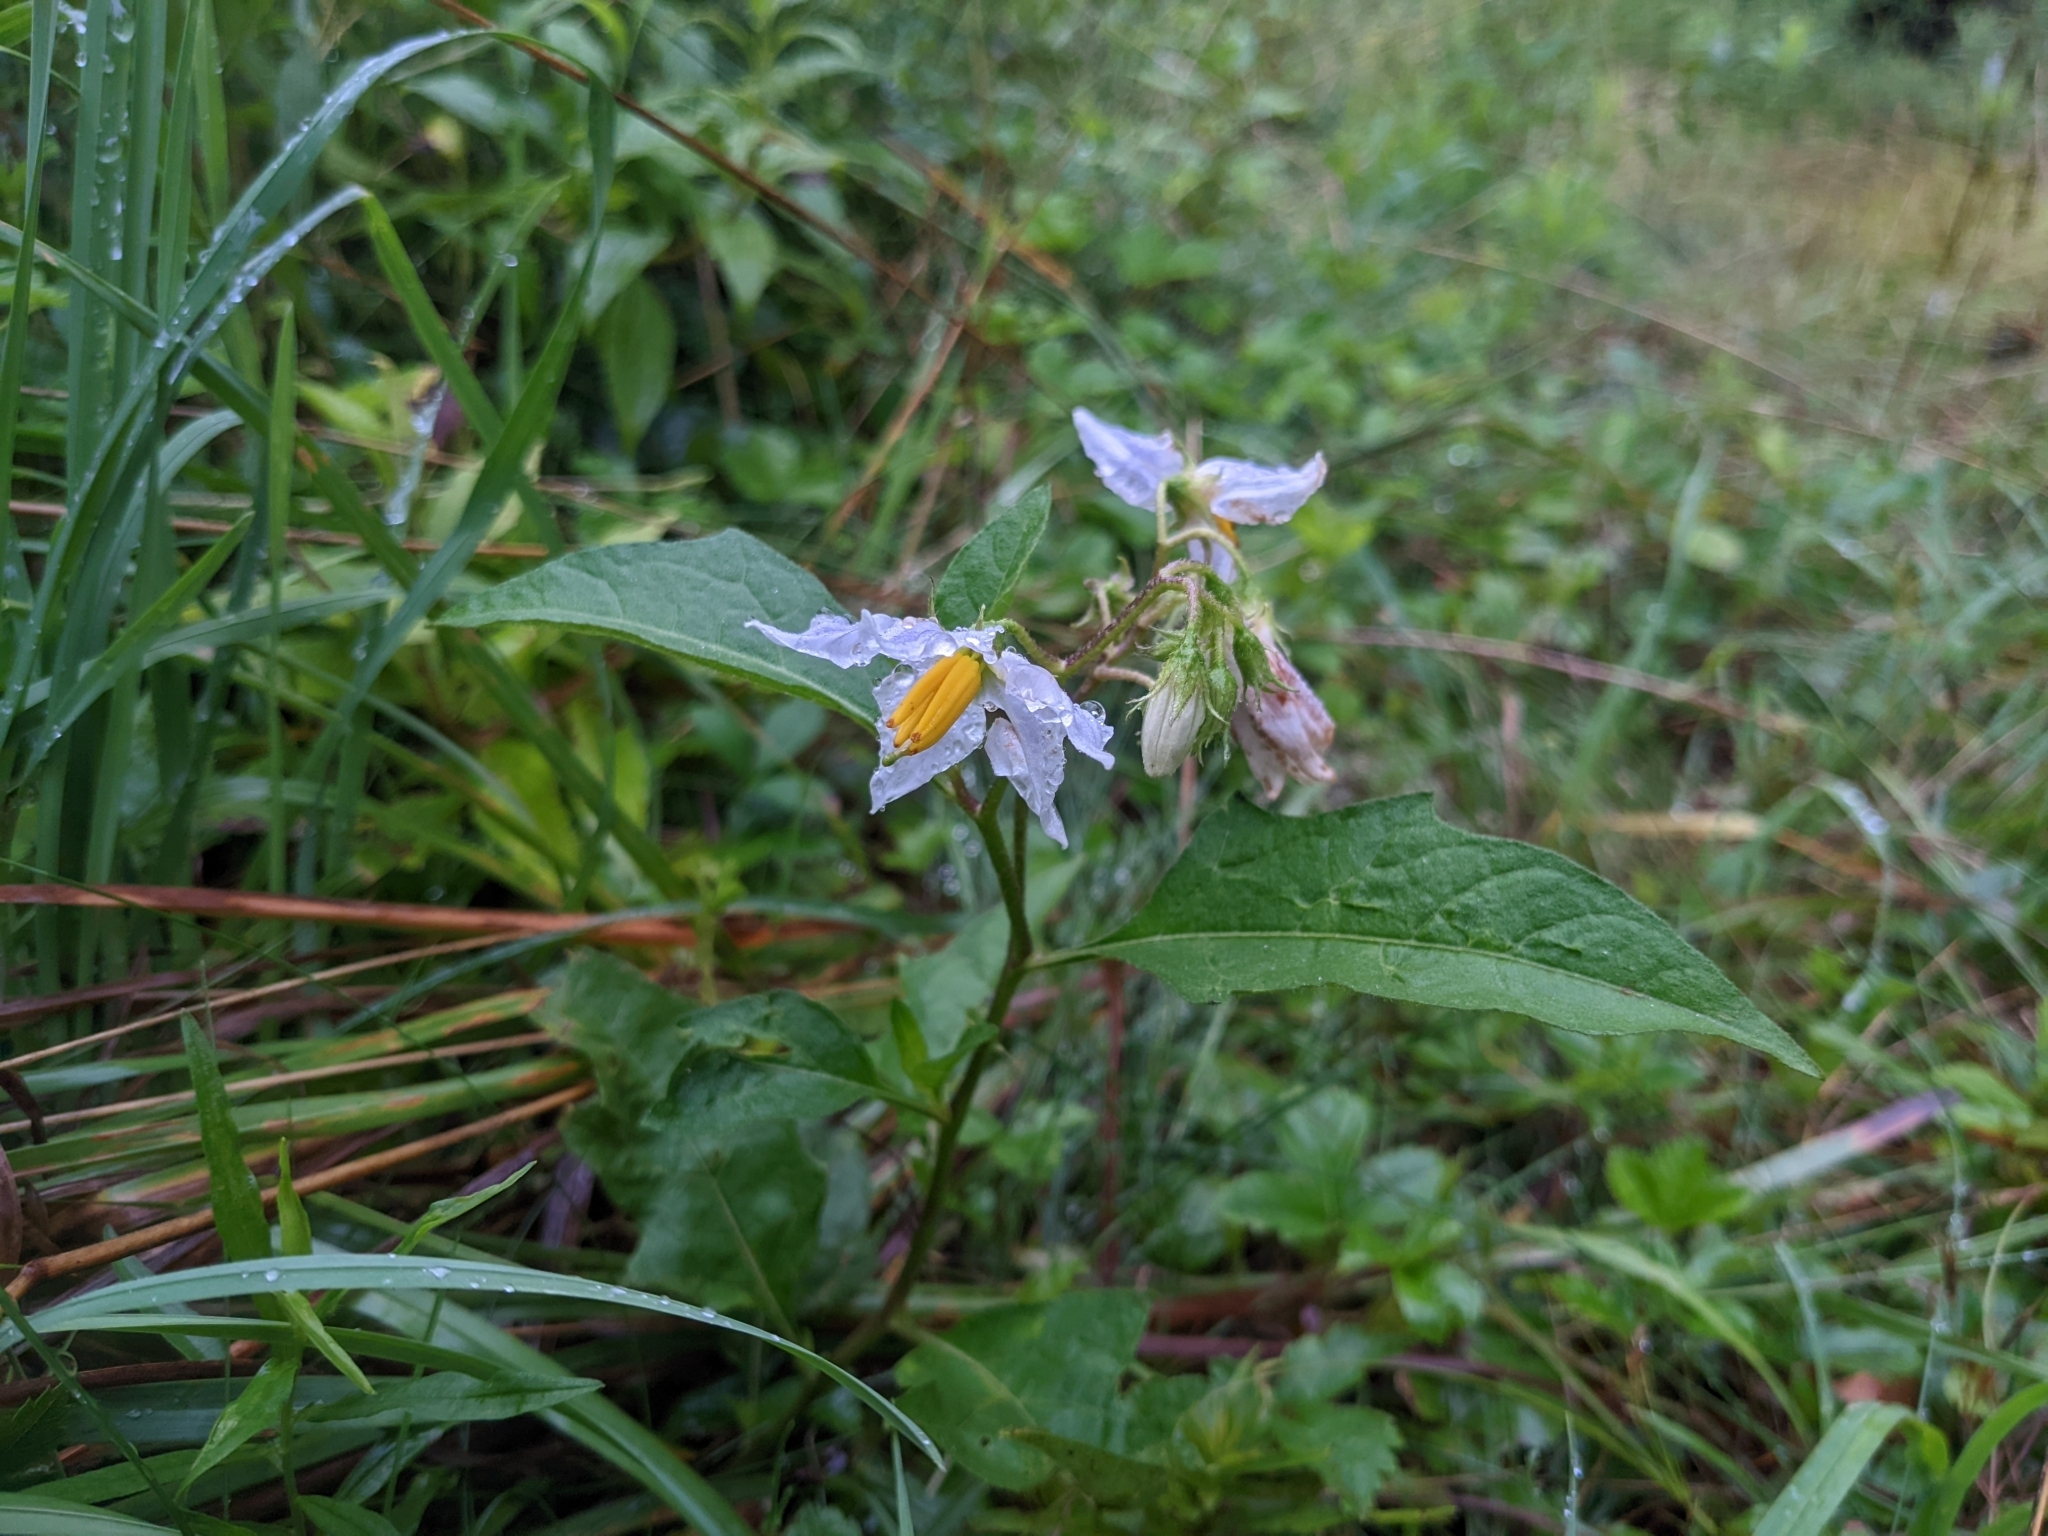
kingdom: Plantae
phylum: Tracheophyta
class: Magnoliopsida
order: Solanales
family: Solanaceae
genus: Solanum
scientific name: Solanum carolinense
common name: Horse-nettle
